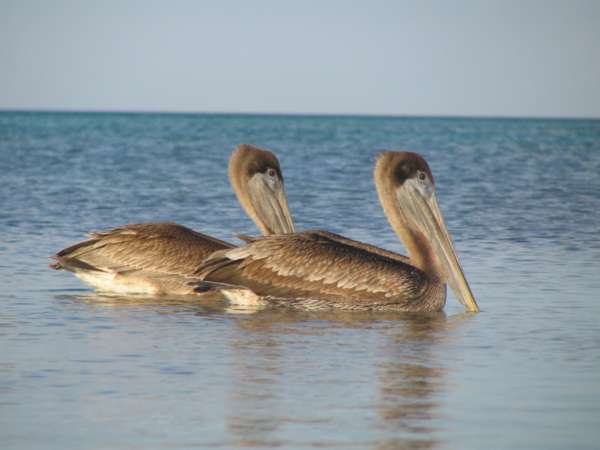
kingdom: Animalia
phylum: Chordata
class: Aves
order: Pelecaniformes
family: Pelecanidae
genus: Pelecanus
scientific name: Pelecanus occidentalis
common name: Brown pelican
